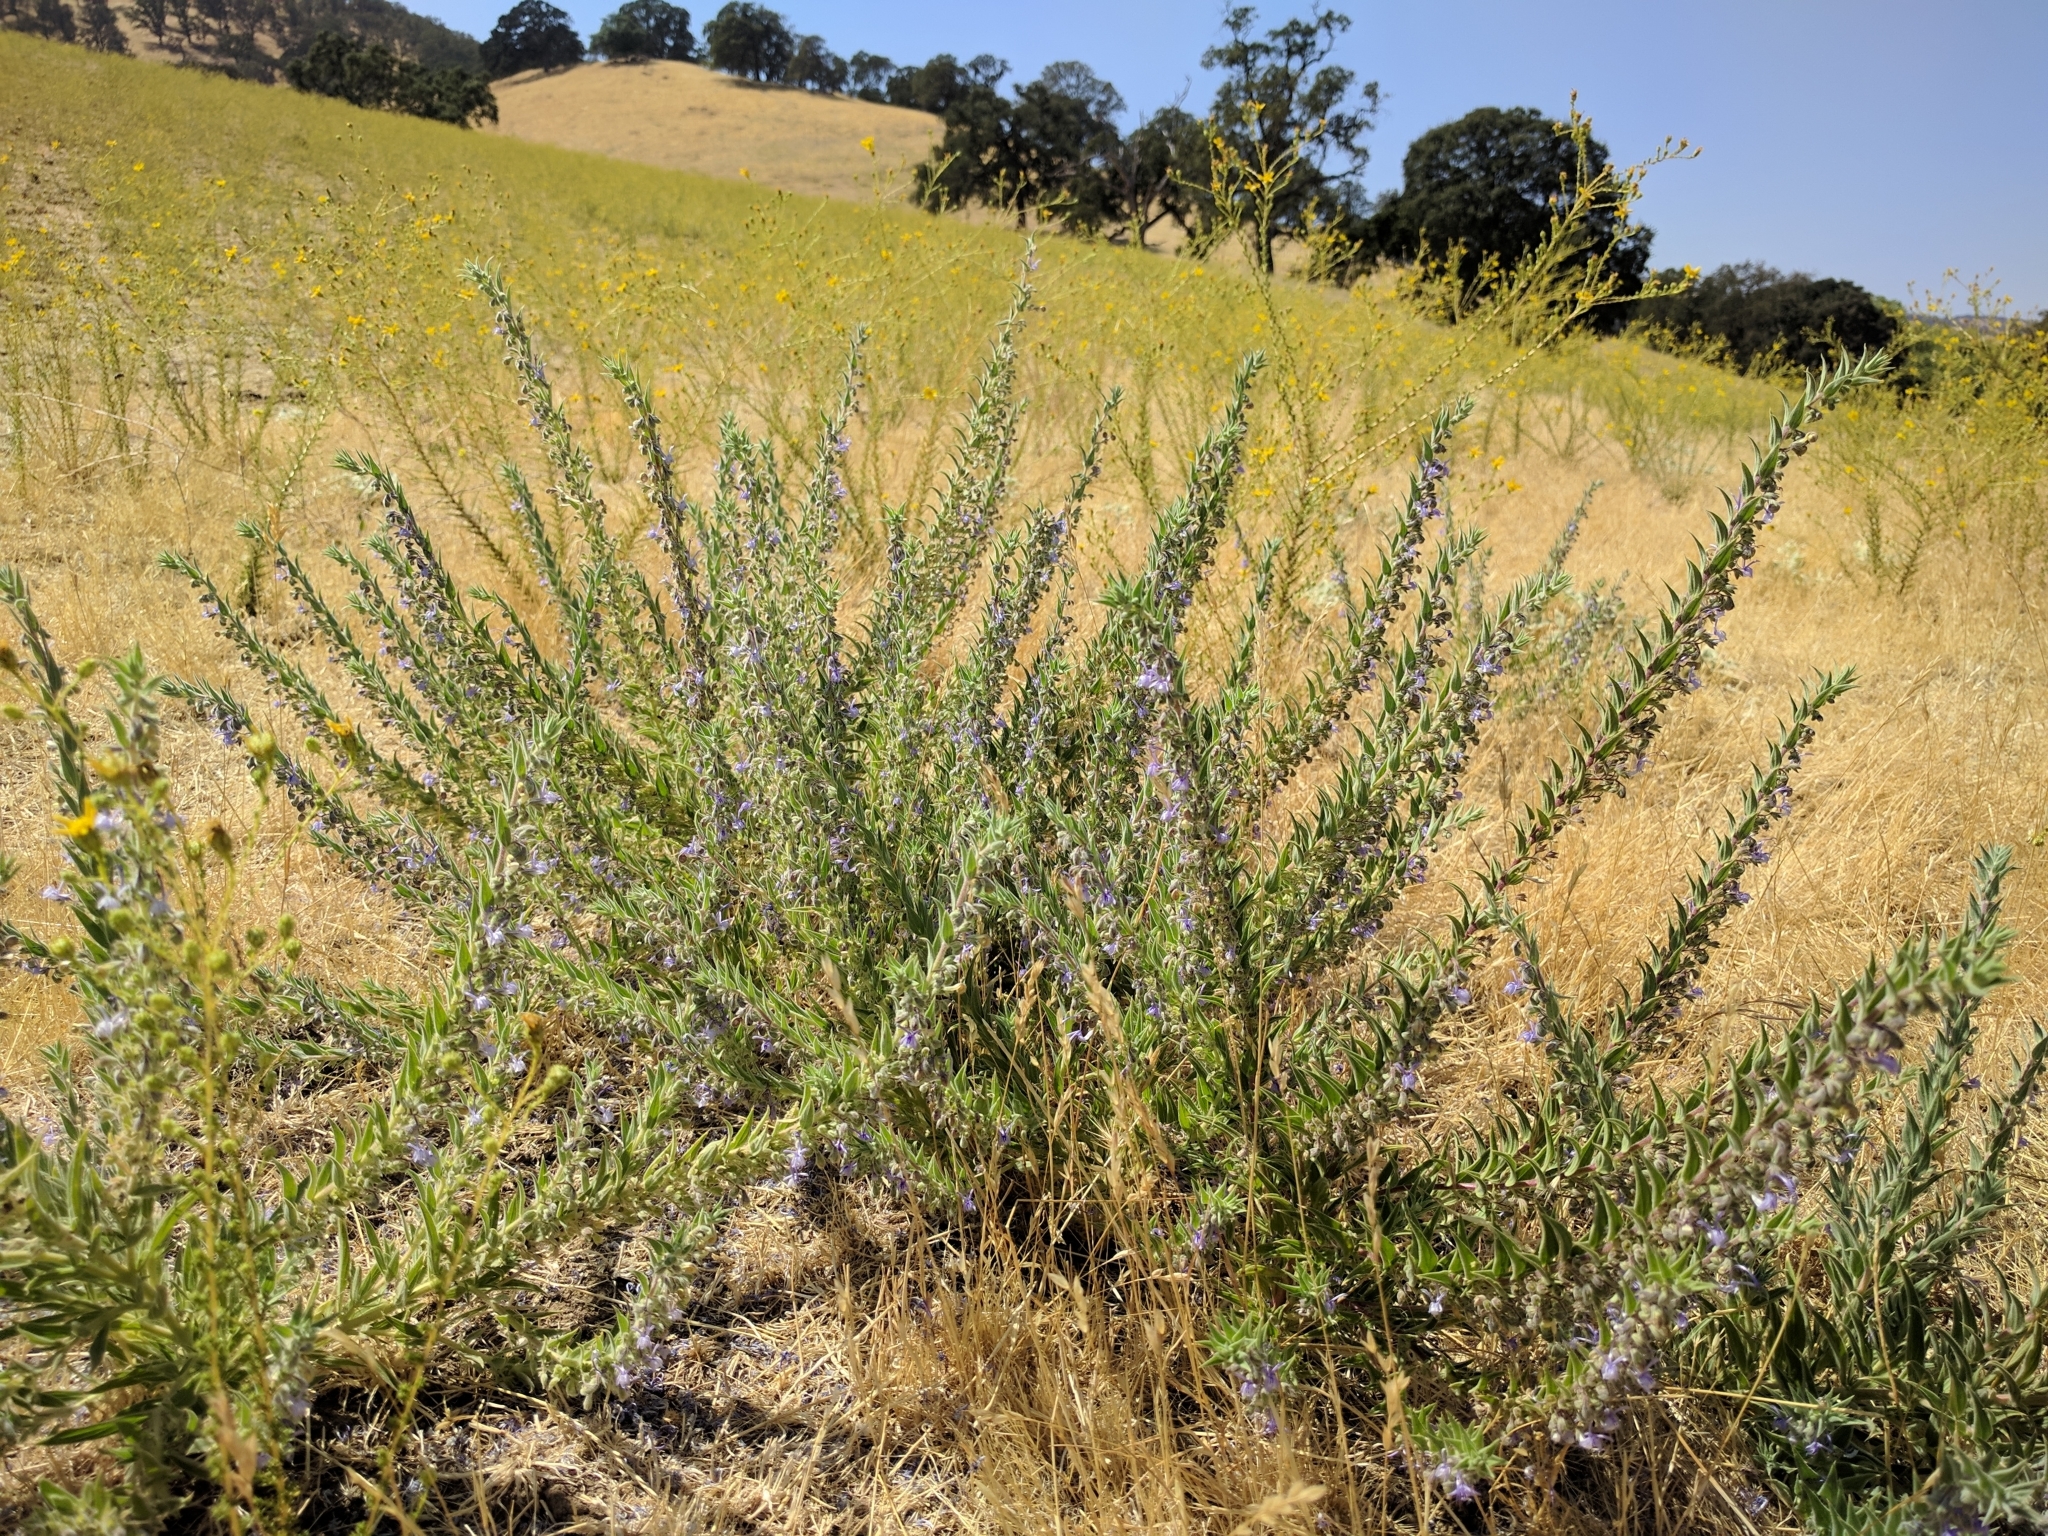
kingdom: Plantae
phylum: Tracheophyta
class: Magnoliopsida
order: Lamiales
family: Lamiaceae
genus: Trichostema
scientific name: Trichostema lanceolatum
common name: Vinegar-weed
